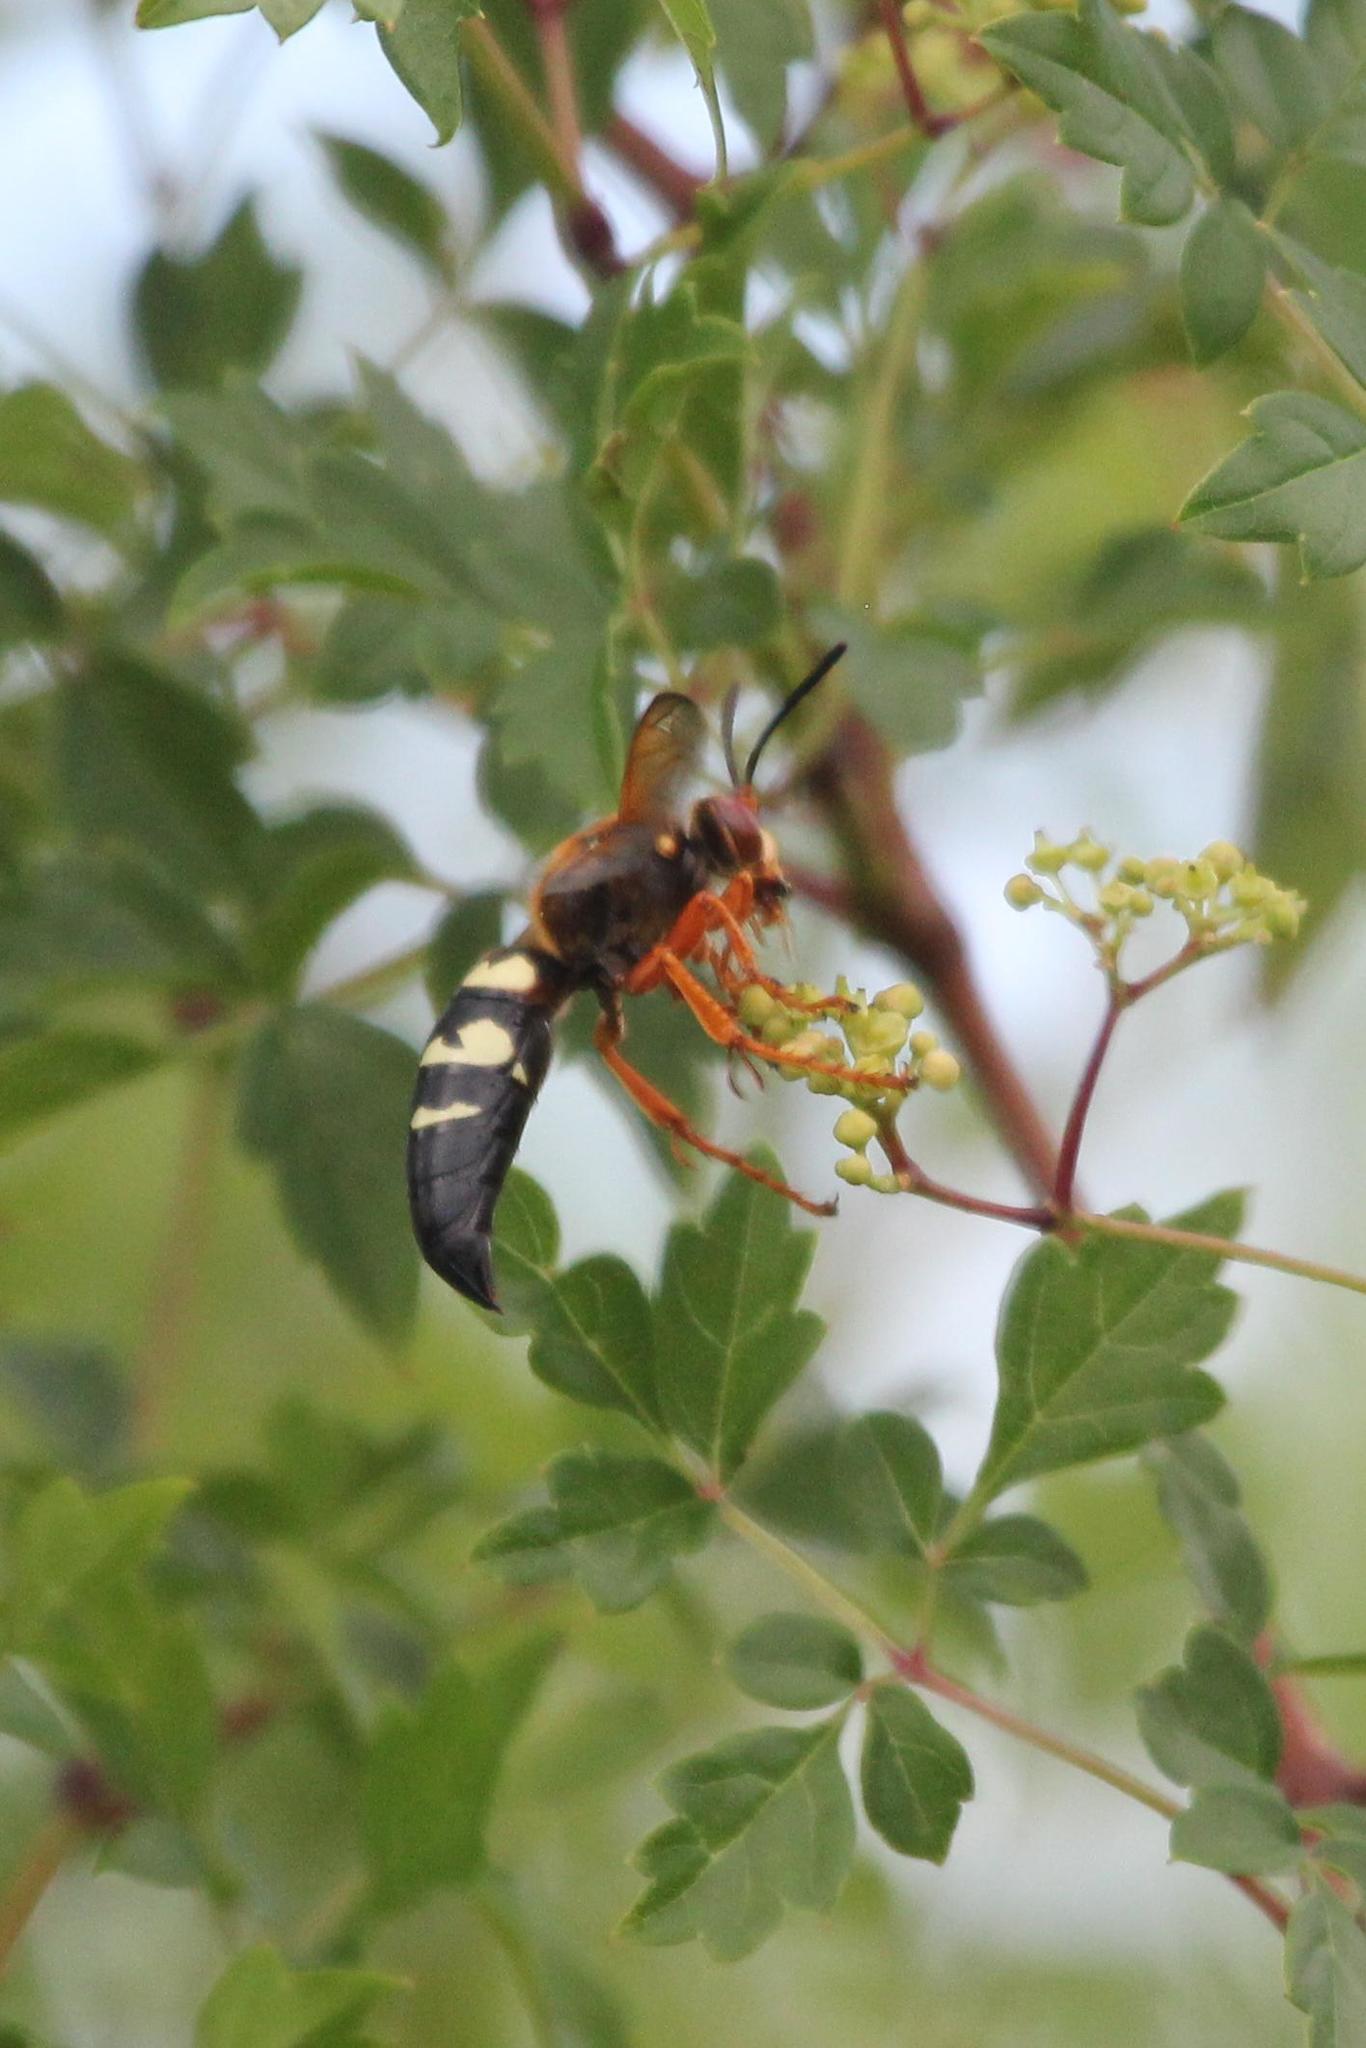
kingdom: Animalia
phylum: Arthropoda
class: Insecta
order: Hymenoptera
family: Crabronidae
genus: Sphecius
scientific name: Sphecius speciosus
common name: Cicada killer
